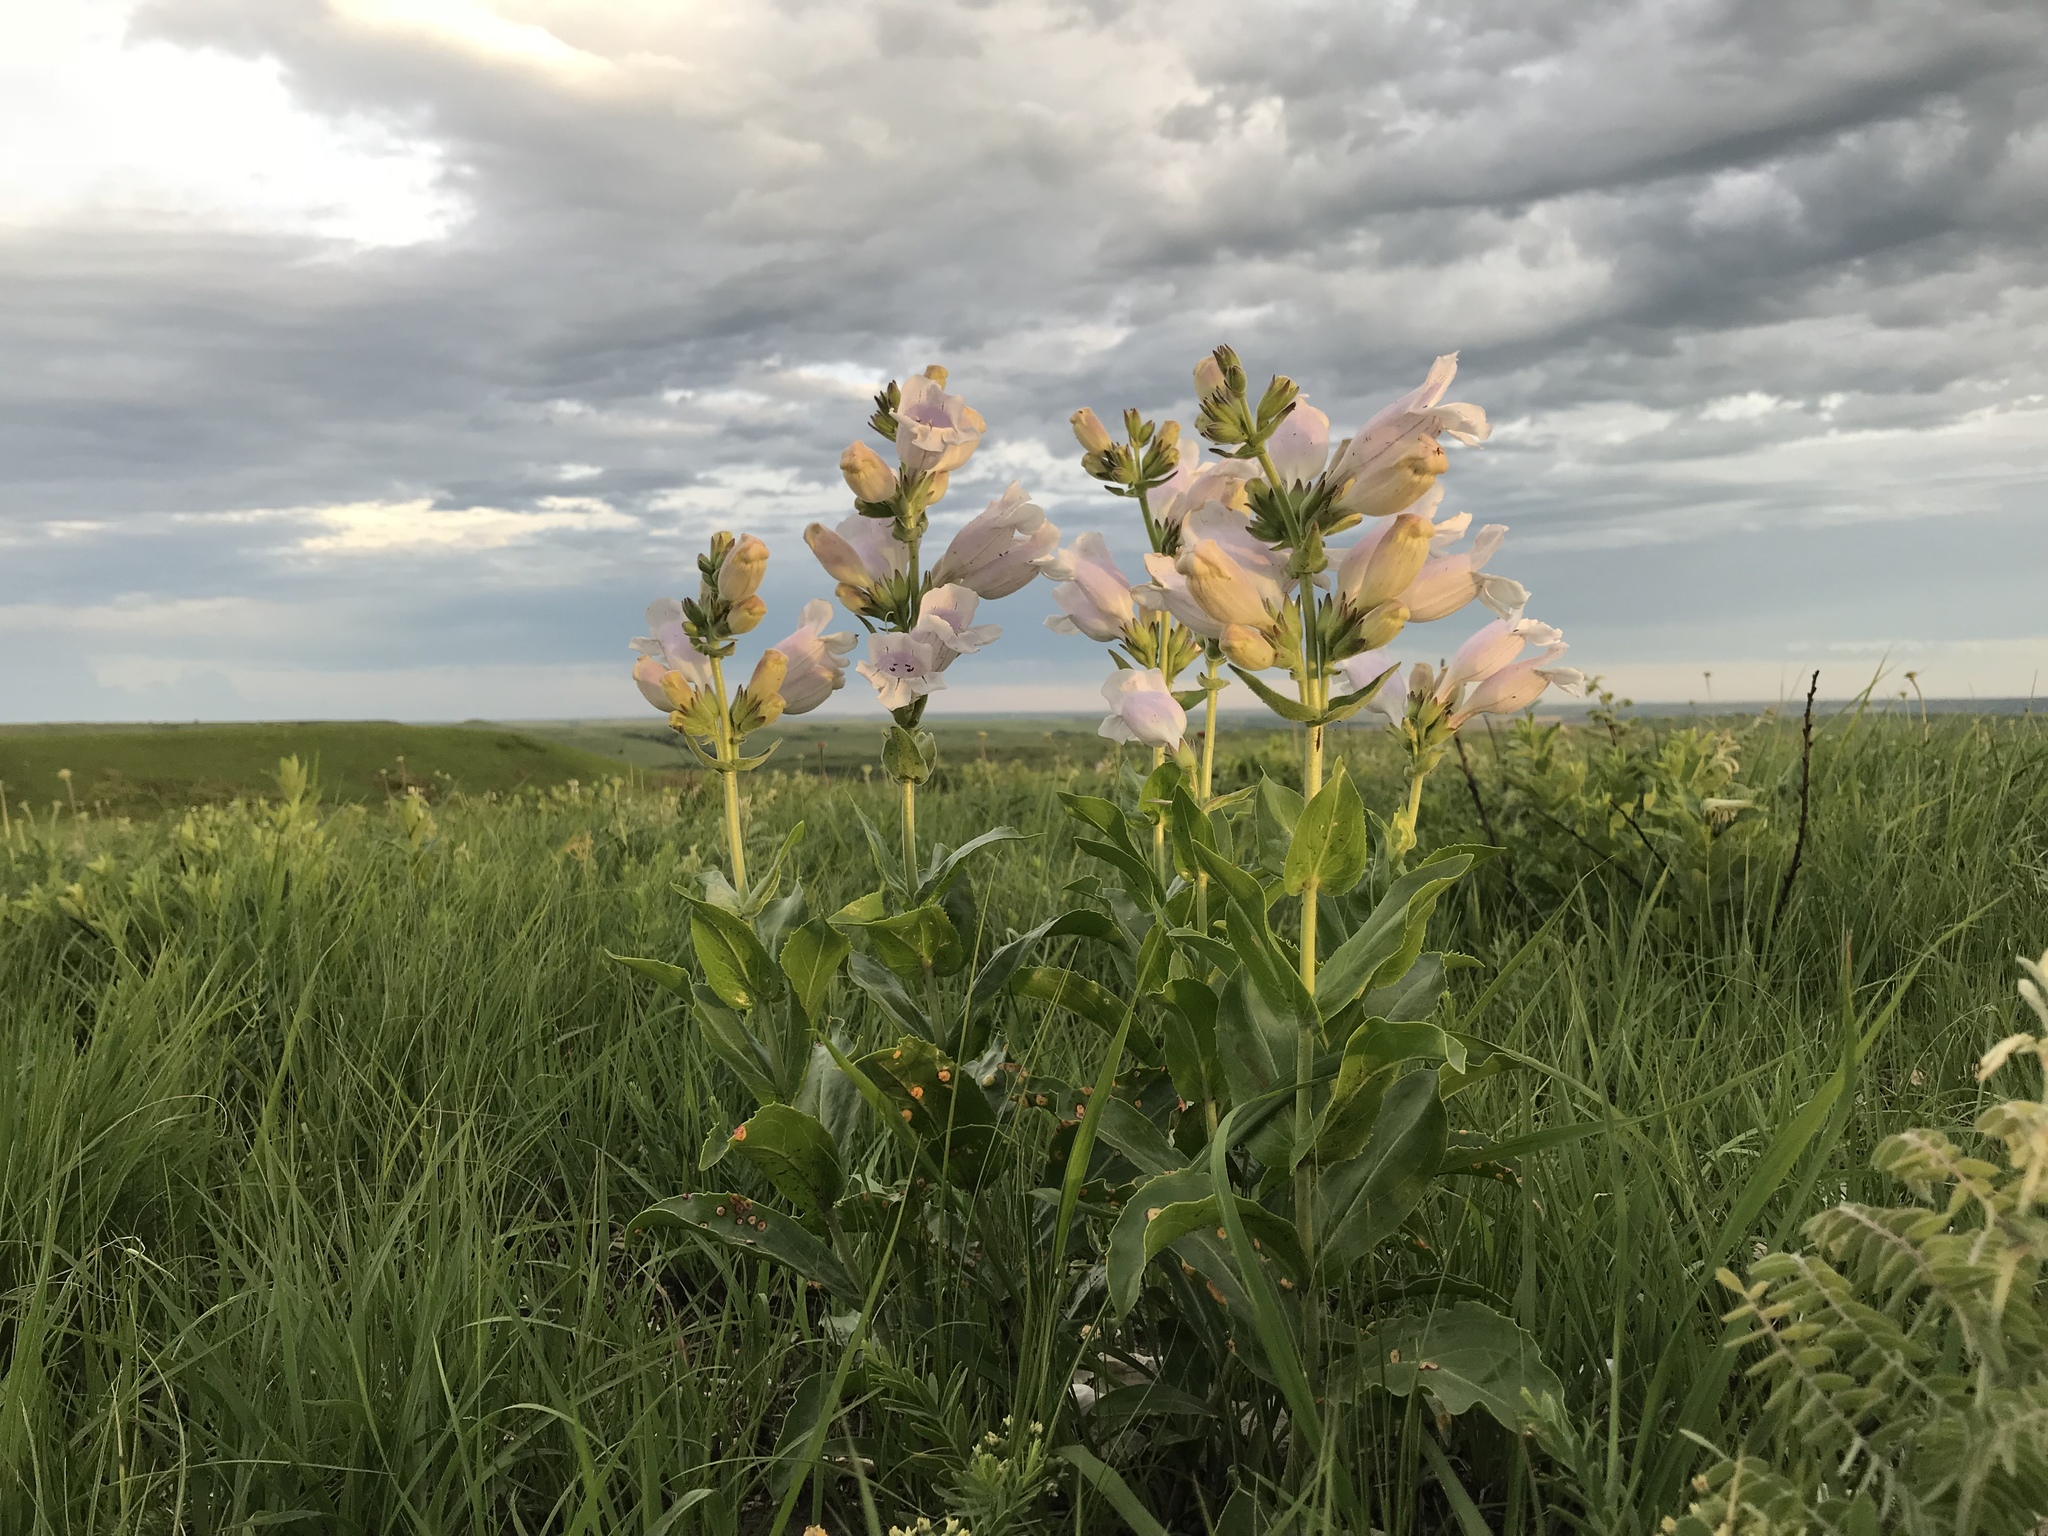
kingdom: Plantae
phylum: Tracheophyta
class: Magnoliopsida
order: Lamiales
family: Plantaginaceae
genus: Penstemon
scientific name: Penstemon cobaea
